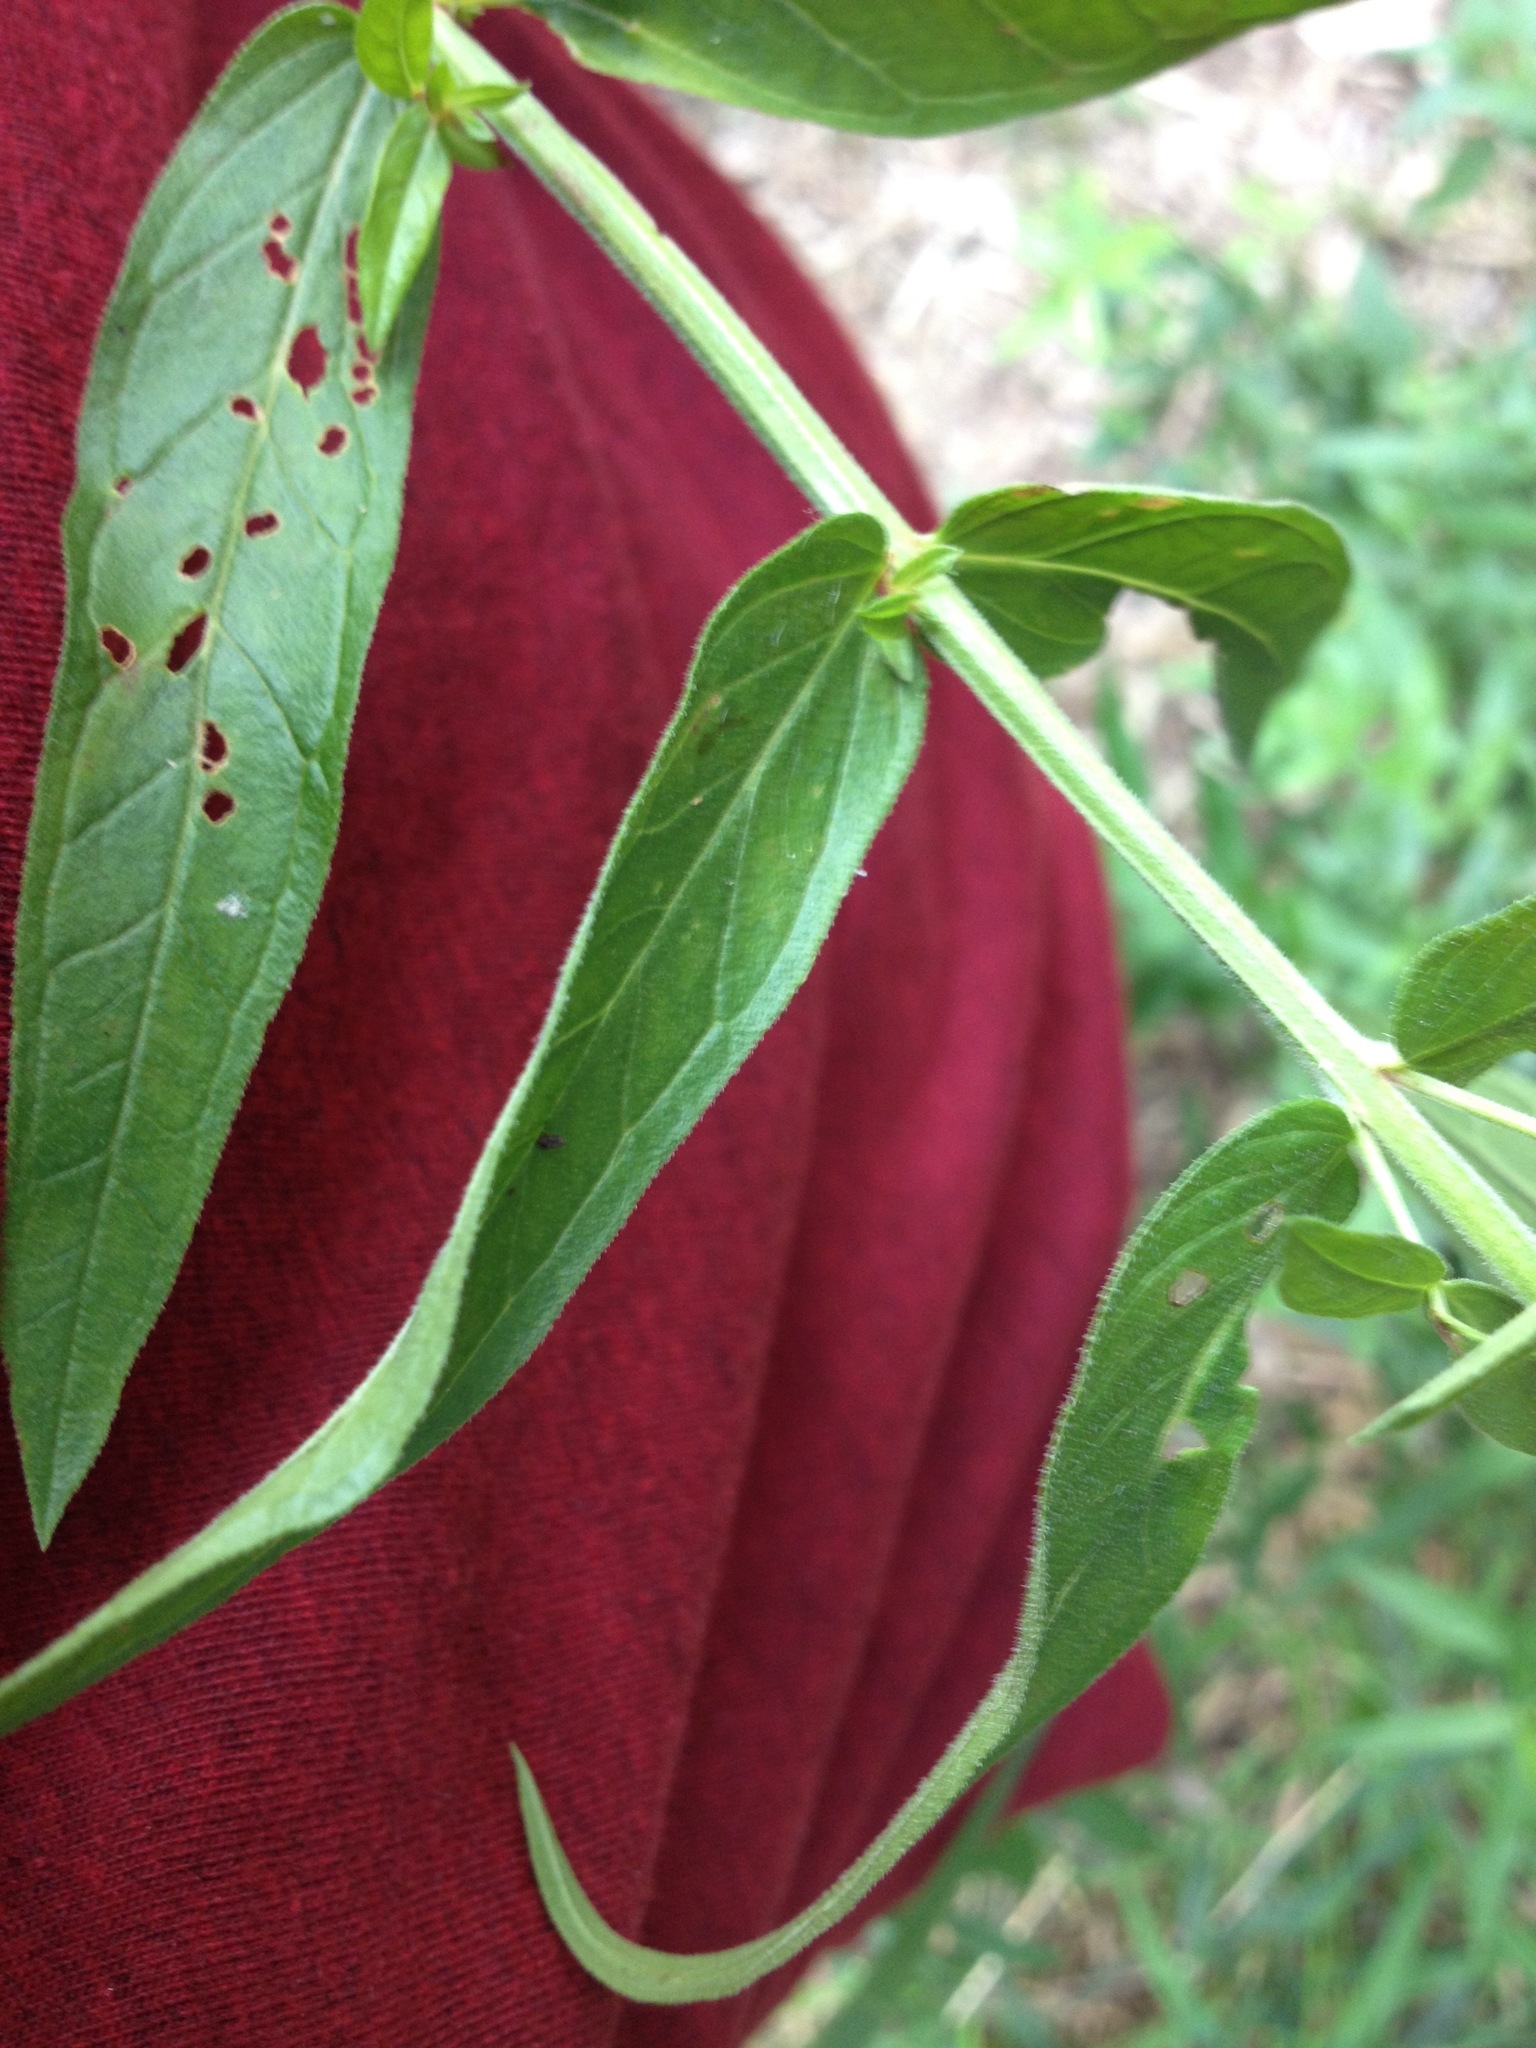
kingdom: Plantae
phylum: Tracheophyta
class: Magnoliopsida
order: Myrtales
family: Lythraceae
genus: Lythrum
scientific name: Lythrum salicaria
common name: Purple loosestrife
